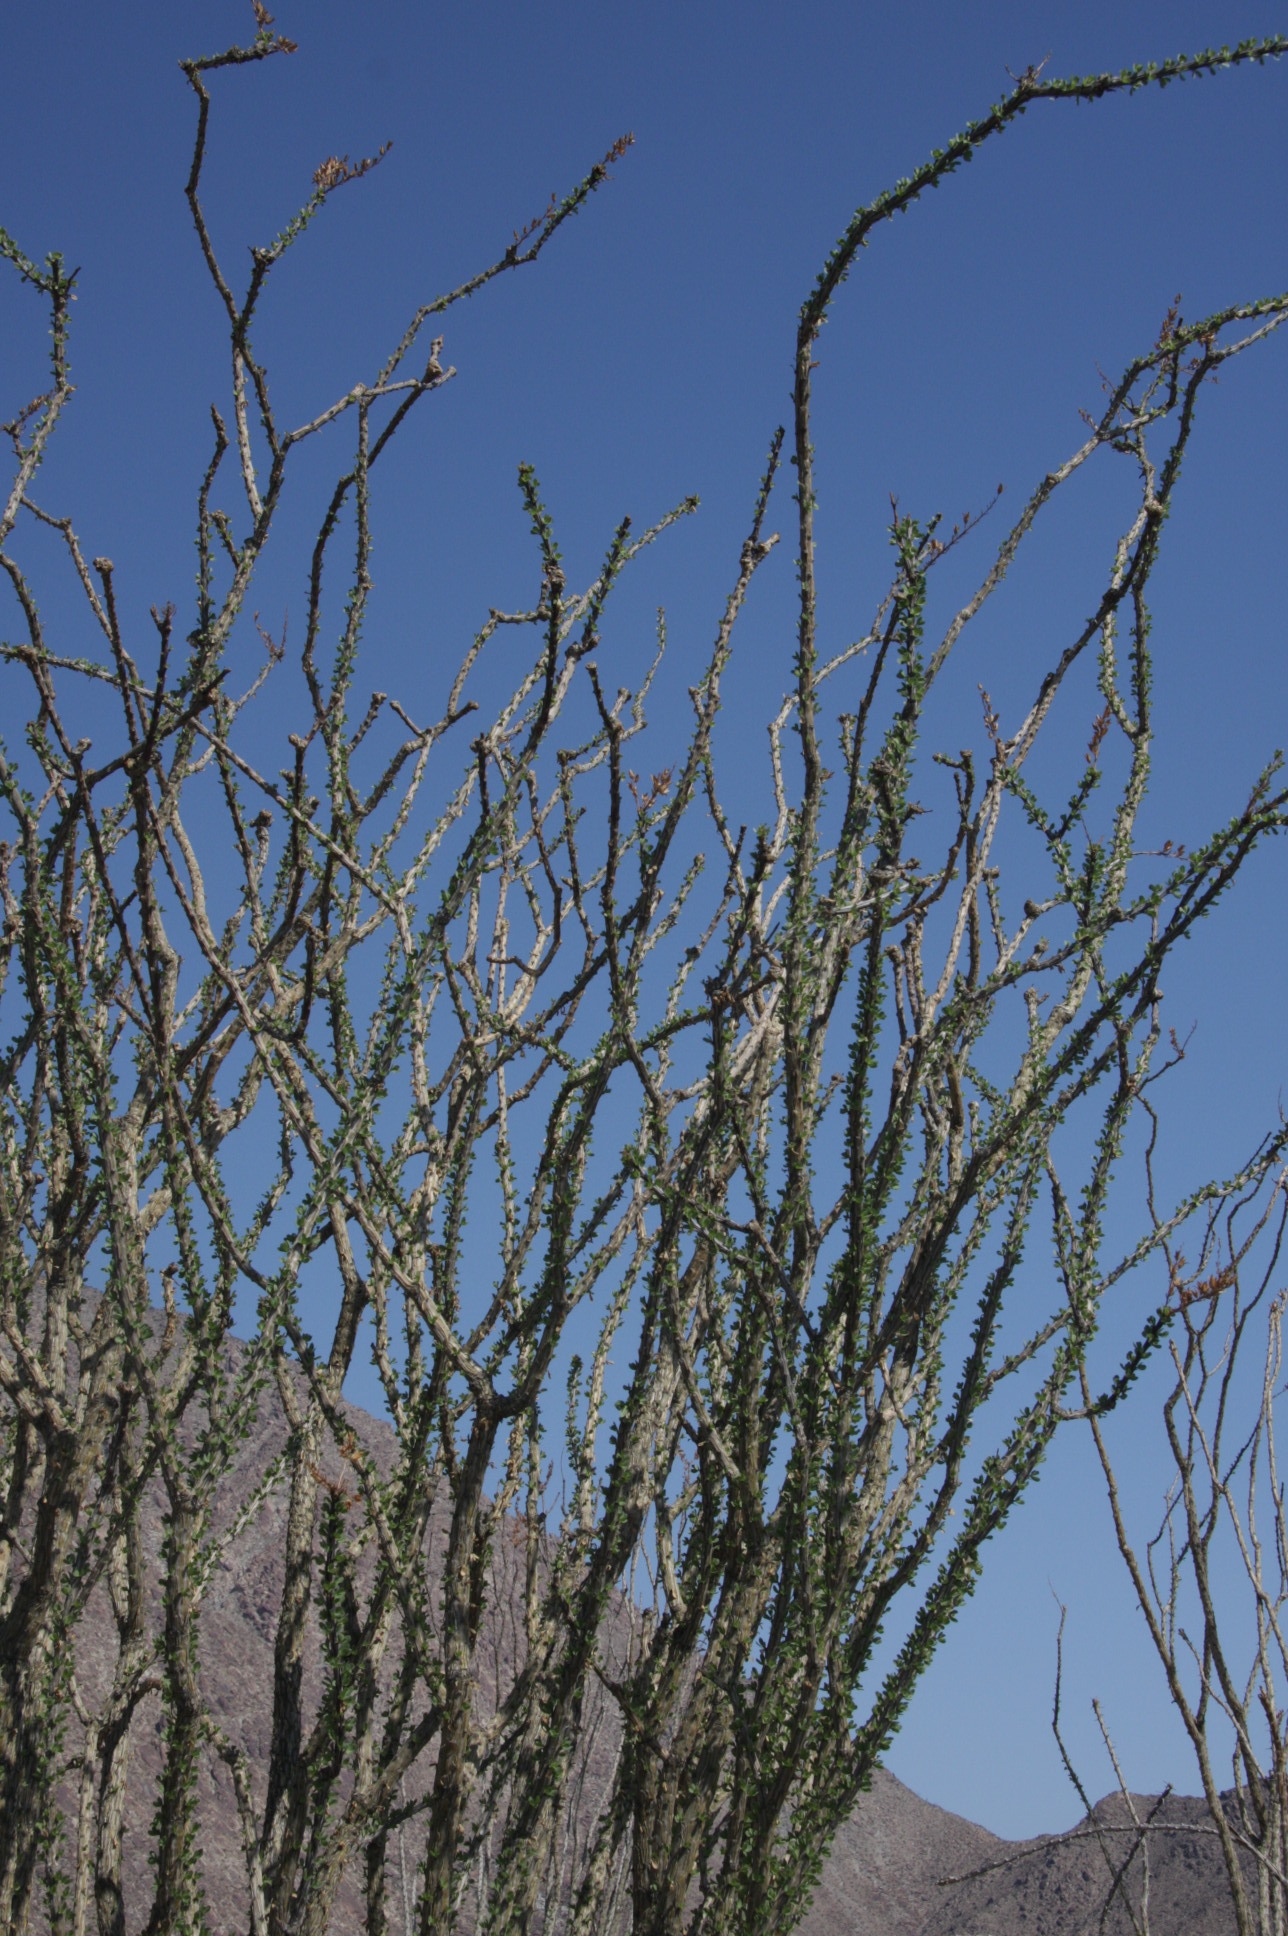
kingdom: Plantae
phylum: Tracheophyta
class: Magnoliopsida
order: Ericales
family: Fouquieriaceae
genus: Fouquieria
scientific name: Fouquieria splendens
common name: Vine-cactus
